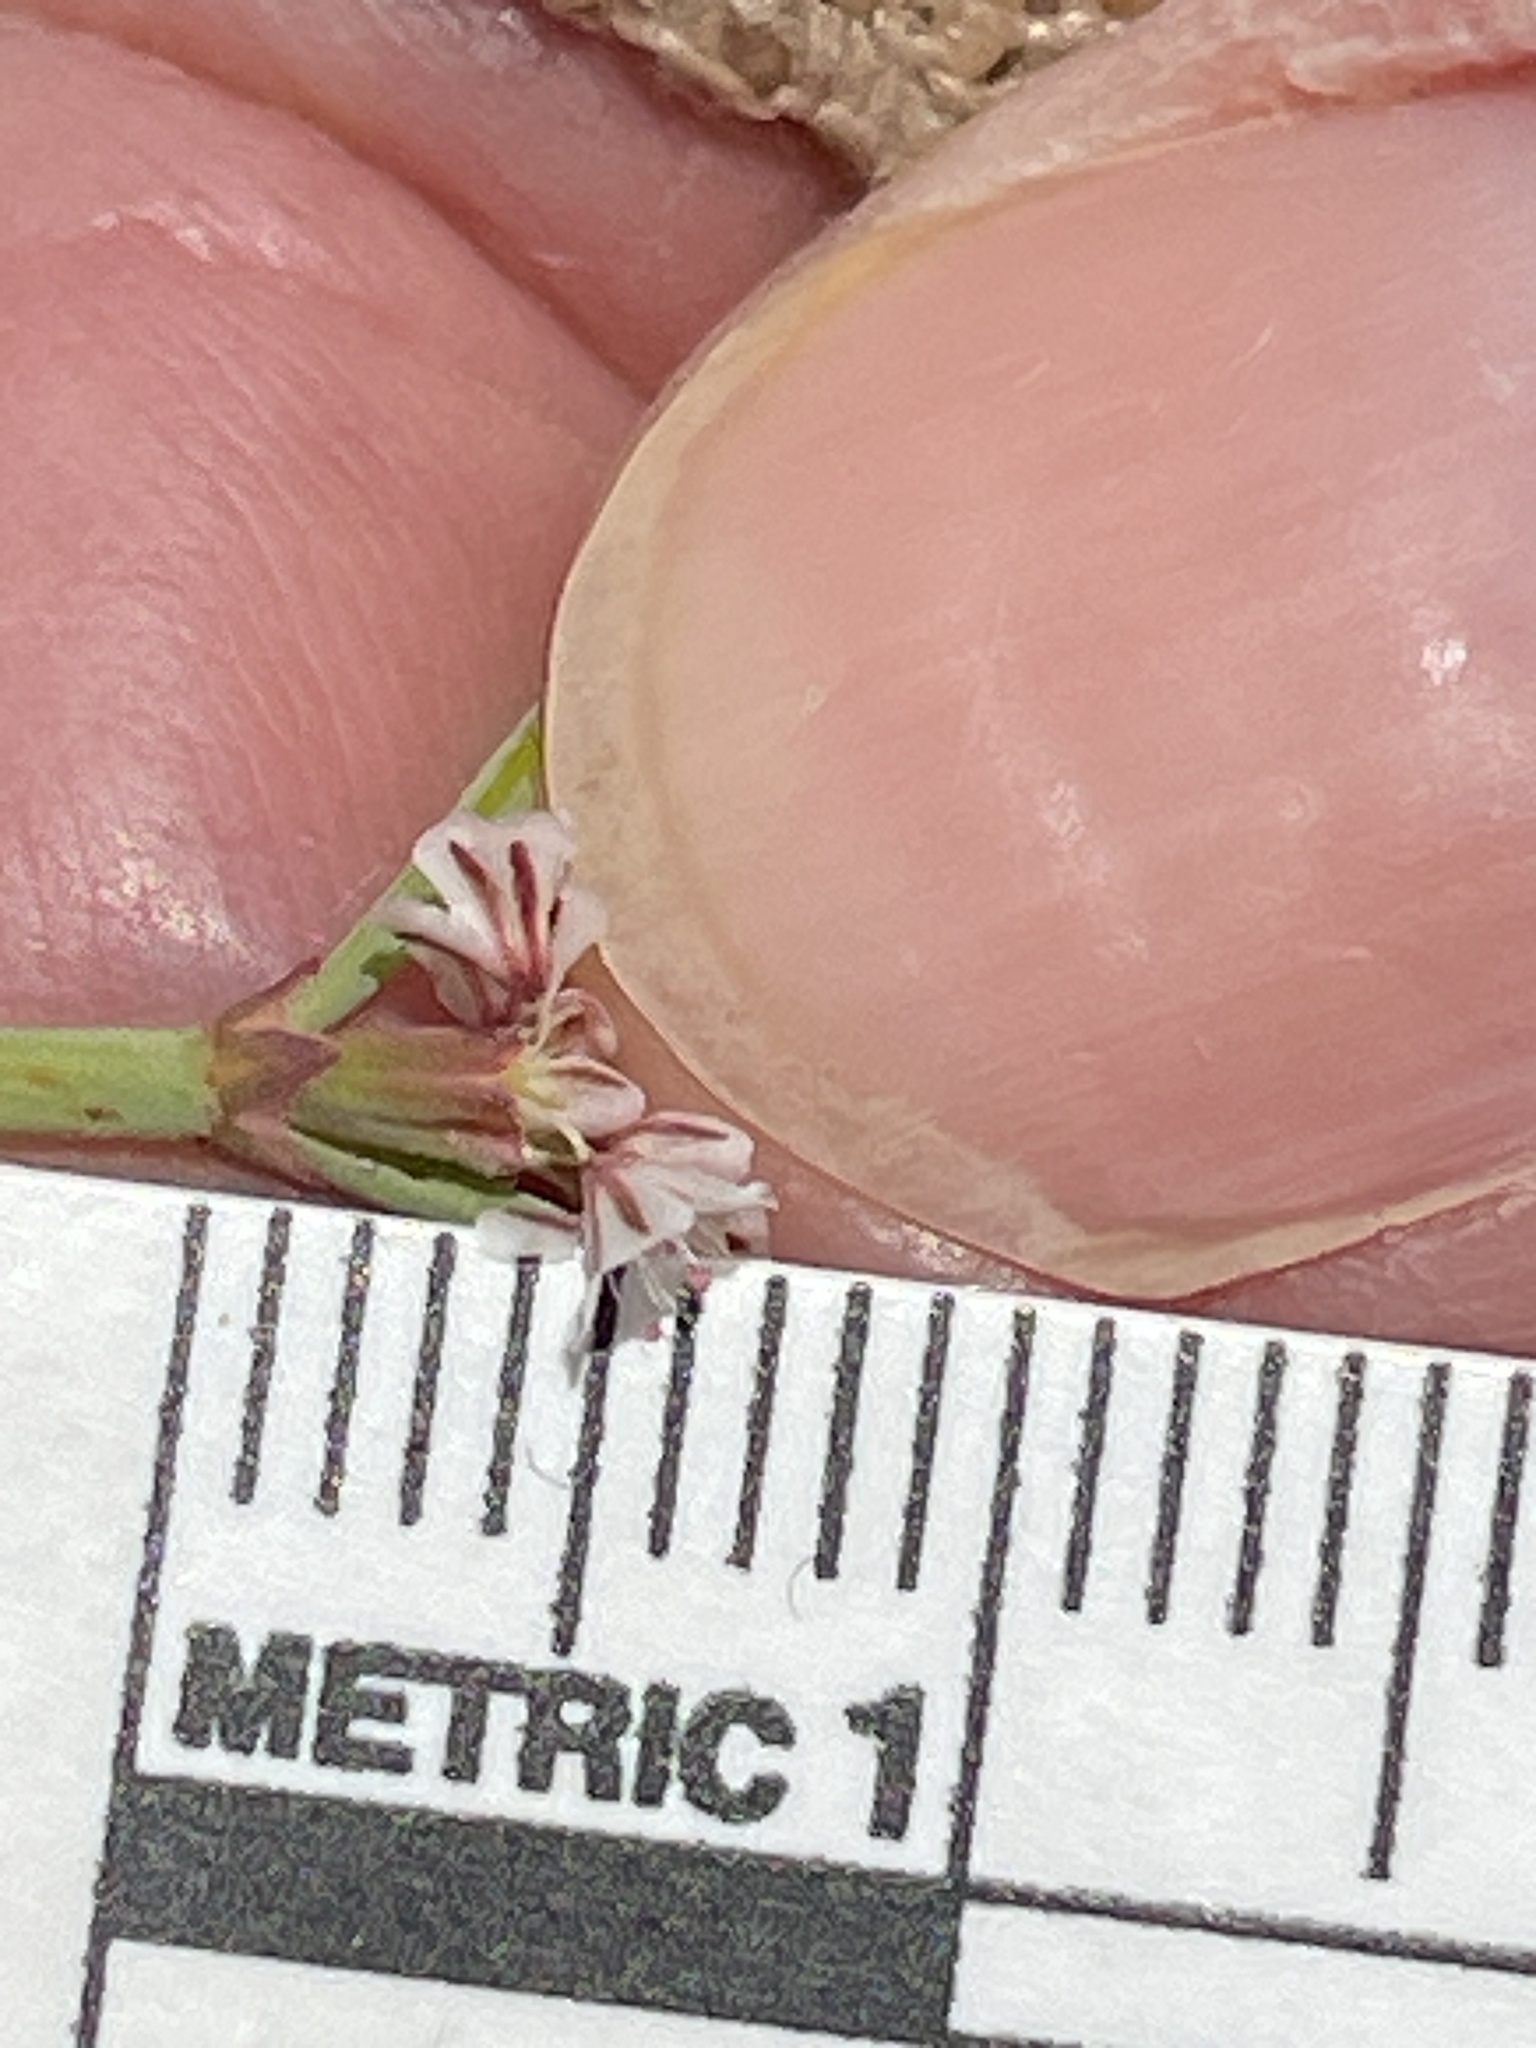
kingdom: Plantae
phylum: Tracheophyta
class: Magnoliopsida
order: Caryophyllales
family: Polygonaceae
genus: Eriogonum
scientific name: Eriogonum davidsonii
